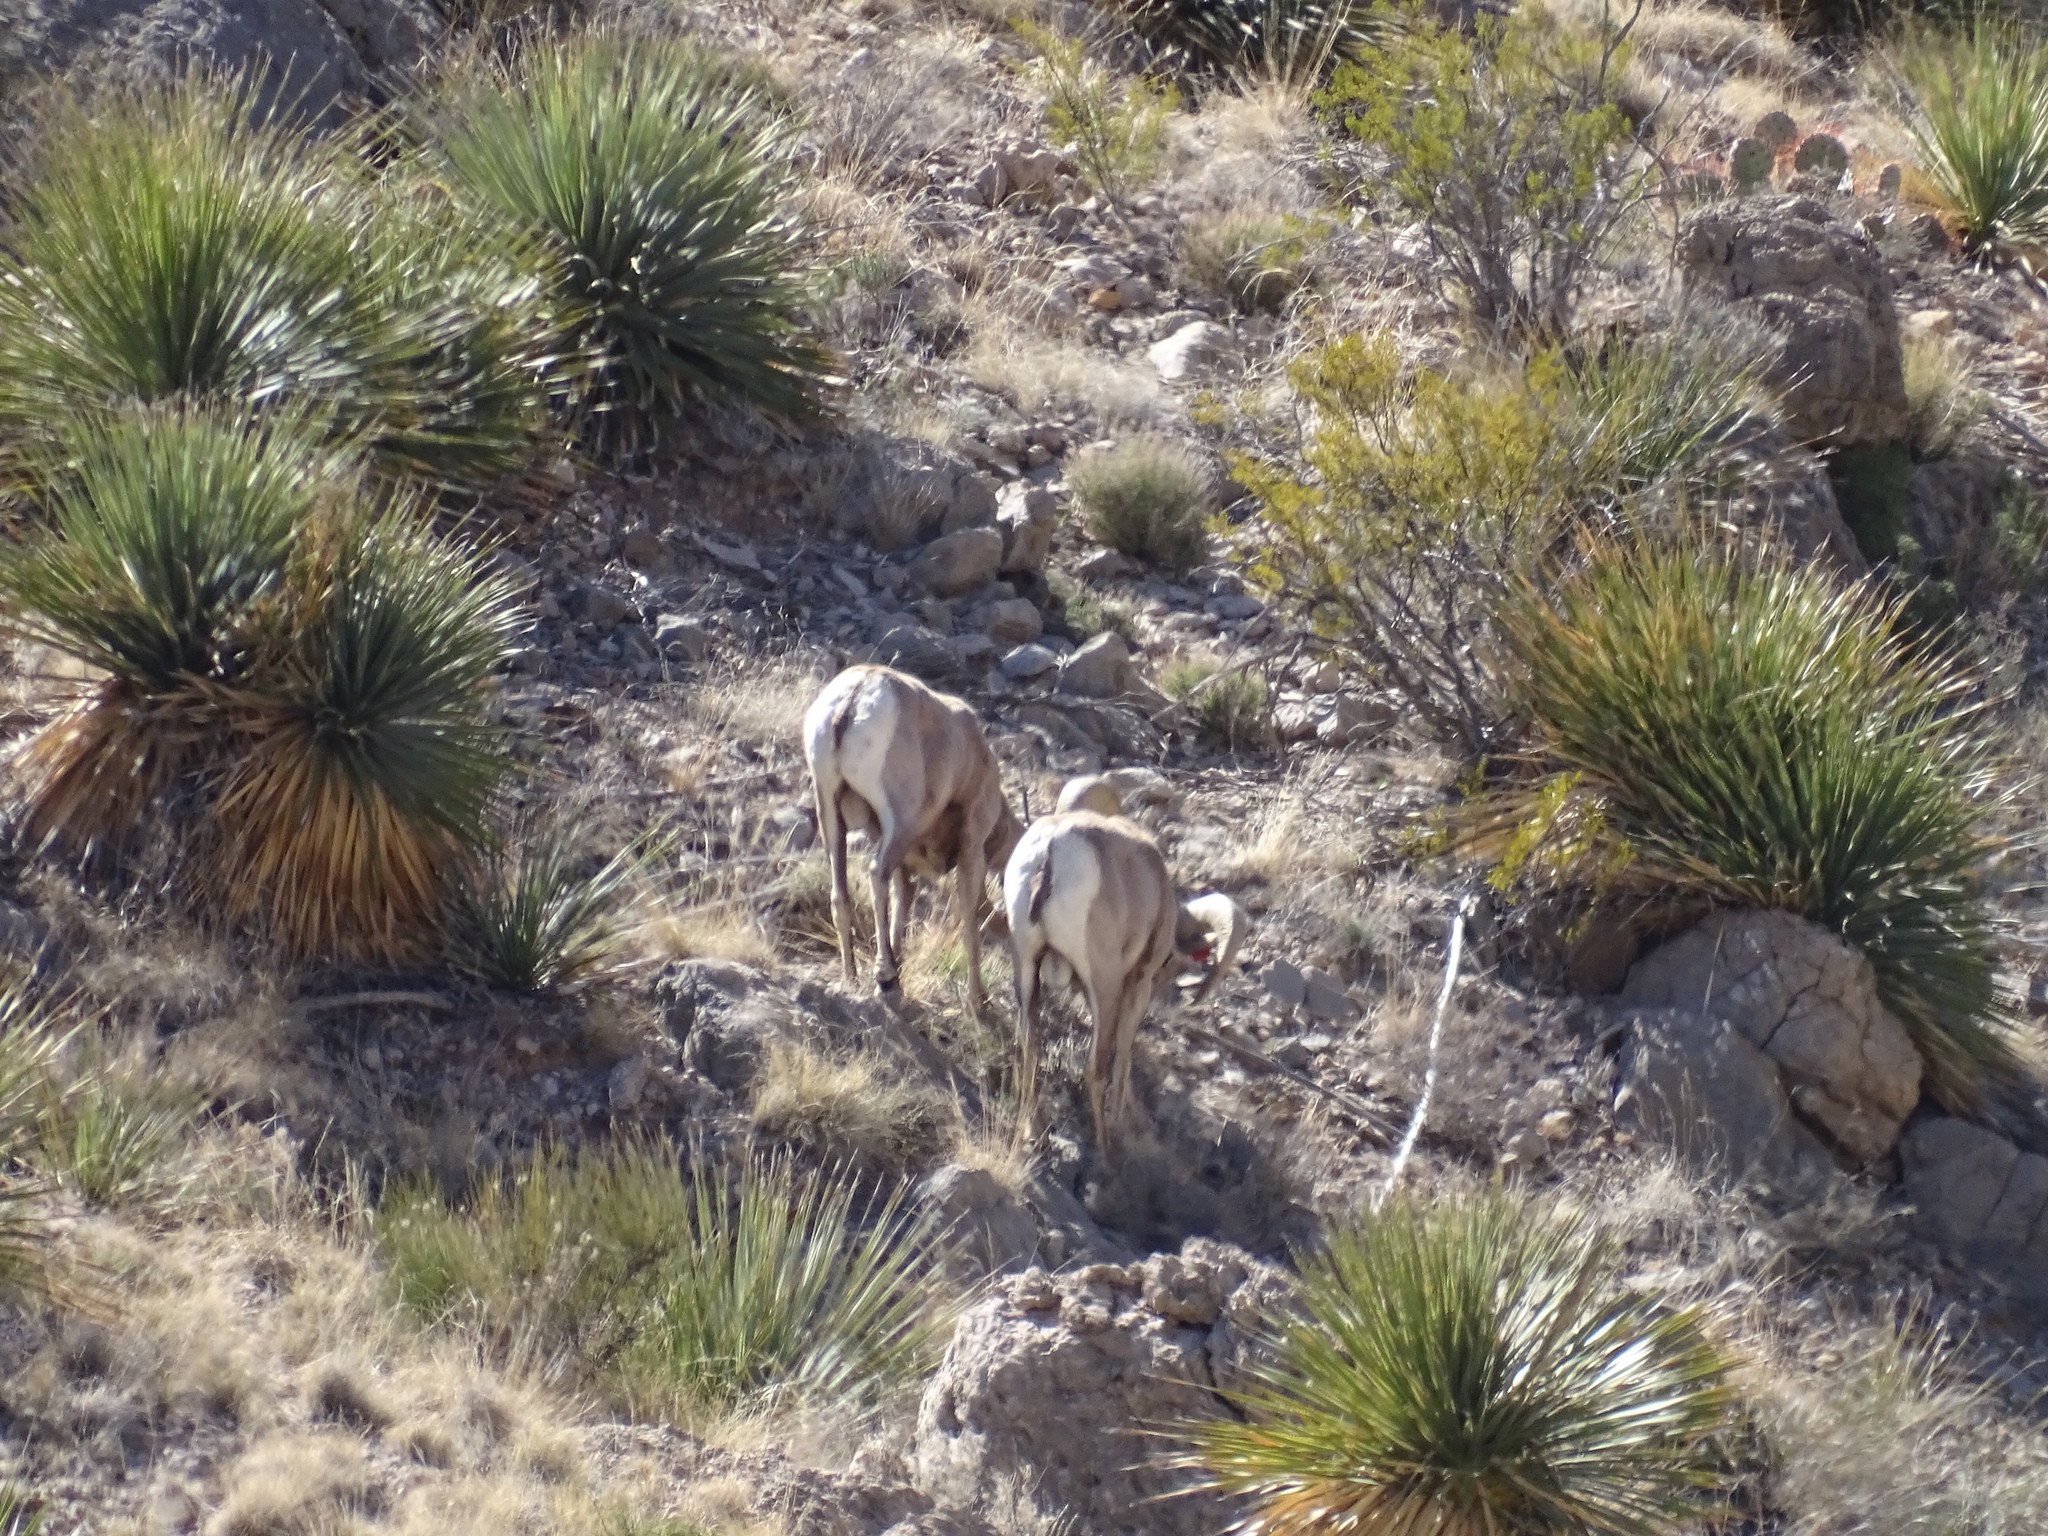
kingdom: Animalia
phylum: Chordata
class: Mammalia
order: Artiodactyla
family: Bovidae
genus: Ovis
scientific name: Ovis canadensis
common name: Bighorn sheep
